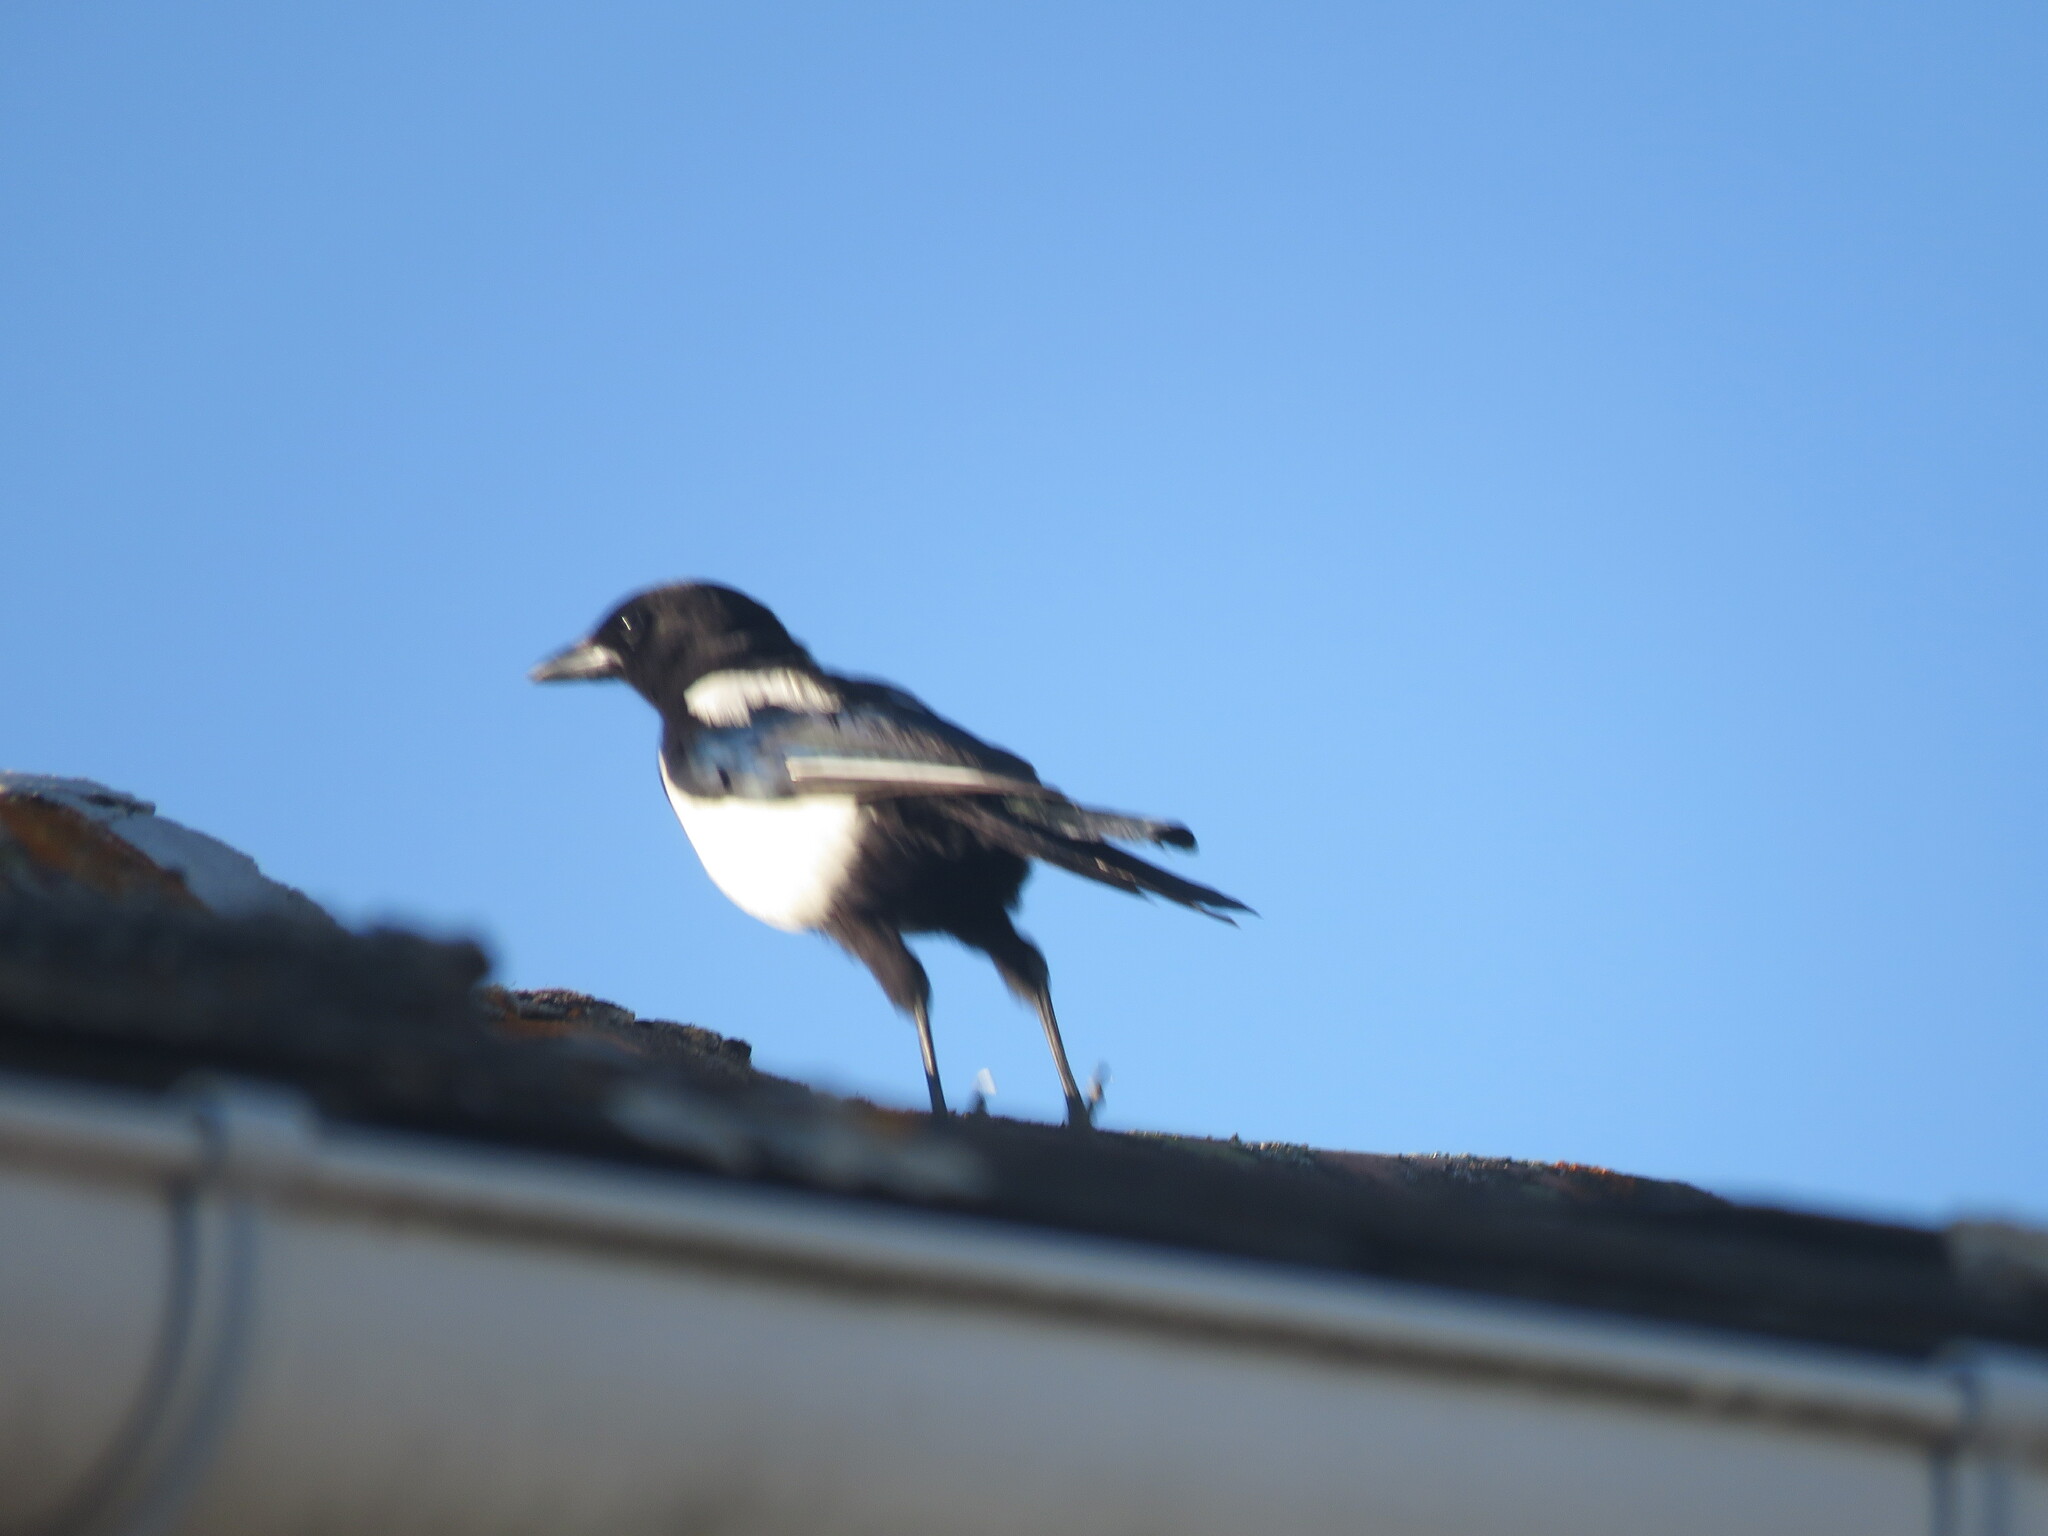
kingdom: Animalia
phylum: Chordata
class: Aves
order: Passeriformes
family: Corvidae
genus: Pica
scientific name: Pica pica
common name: Eurasian magpie
